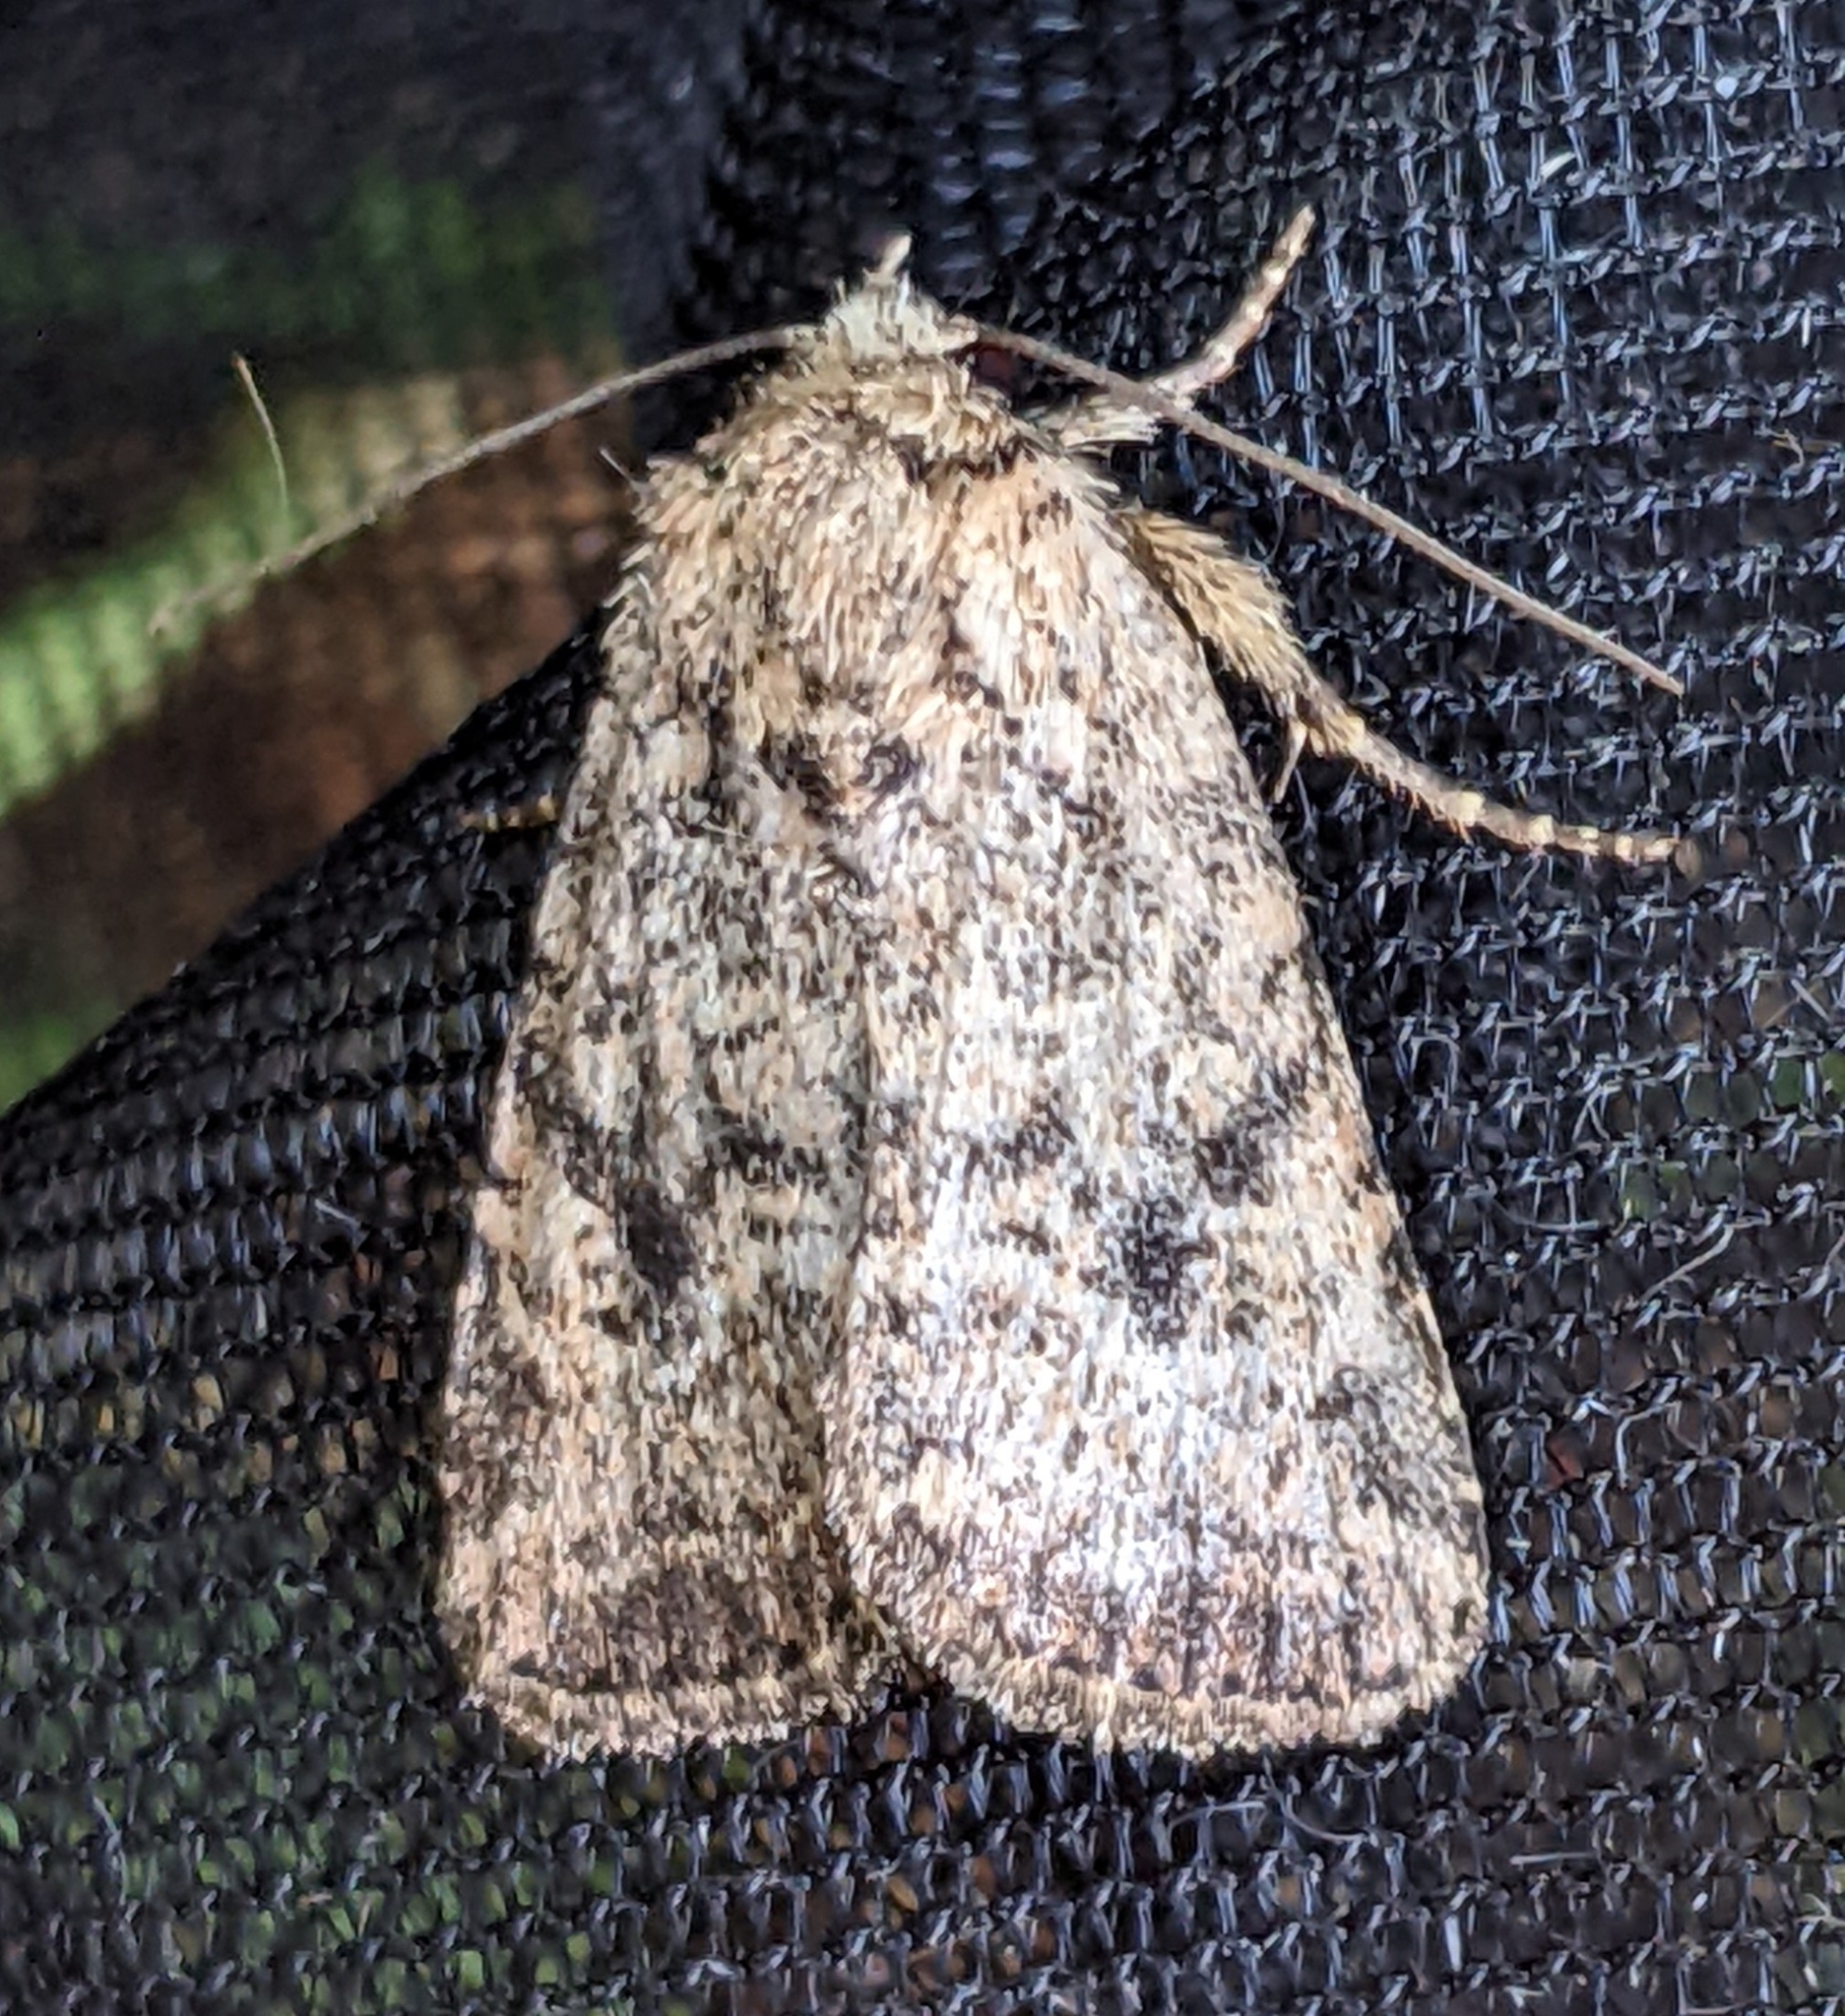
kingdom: Animalia
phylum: Arthropoda
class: Insecta
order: Lepidoptera
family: Noctuidae
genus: Homorthodes
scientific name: Homorthodes hanhami
